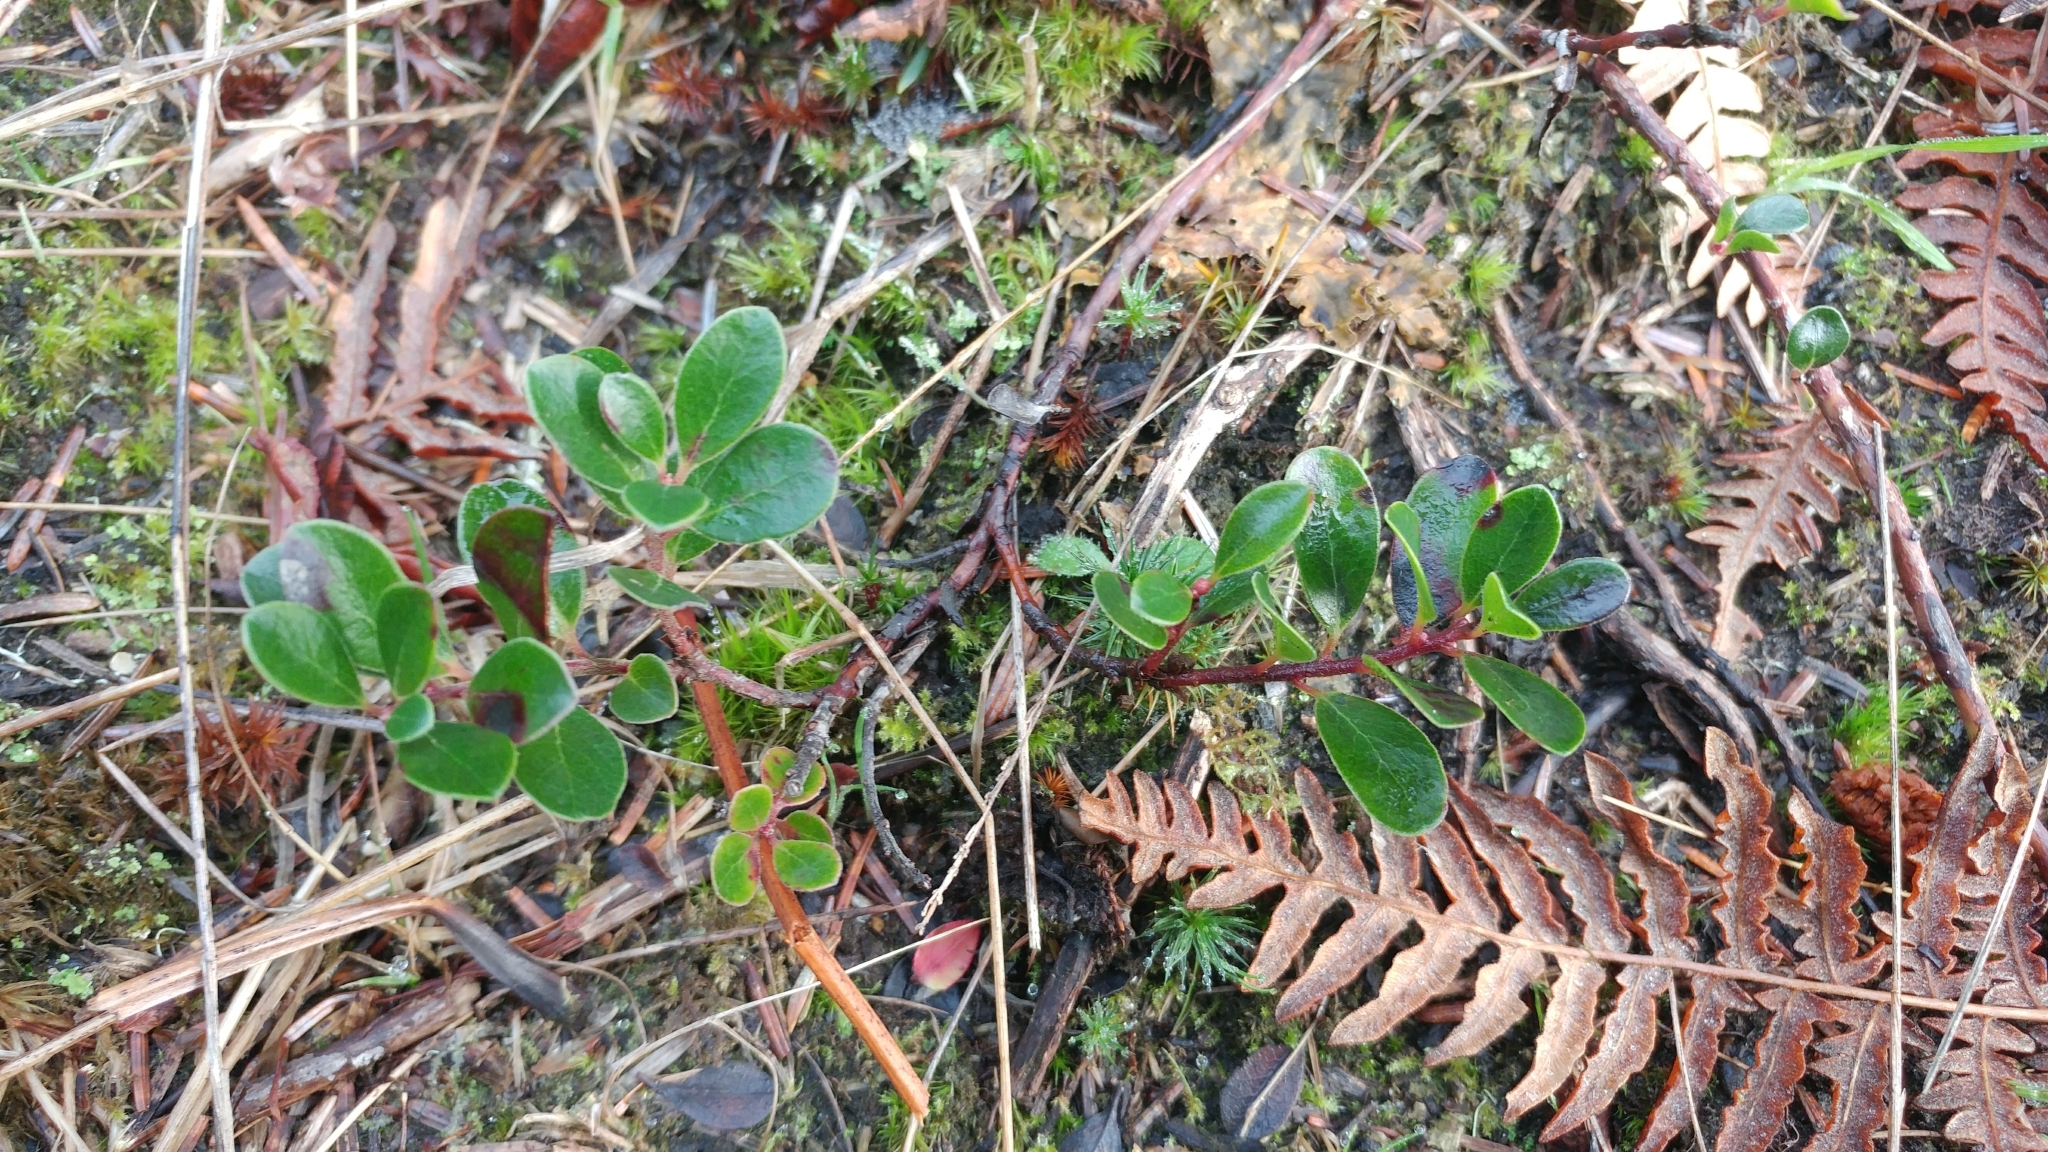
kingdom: Plantae
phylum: Tracheophyta
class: Magnoliopsida
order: Ericales
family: Ericaceae
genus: Arctostaphylos
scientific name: Arctostaphylos uva-ursi
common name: Bearberry
